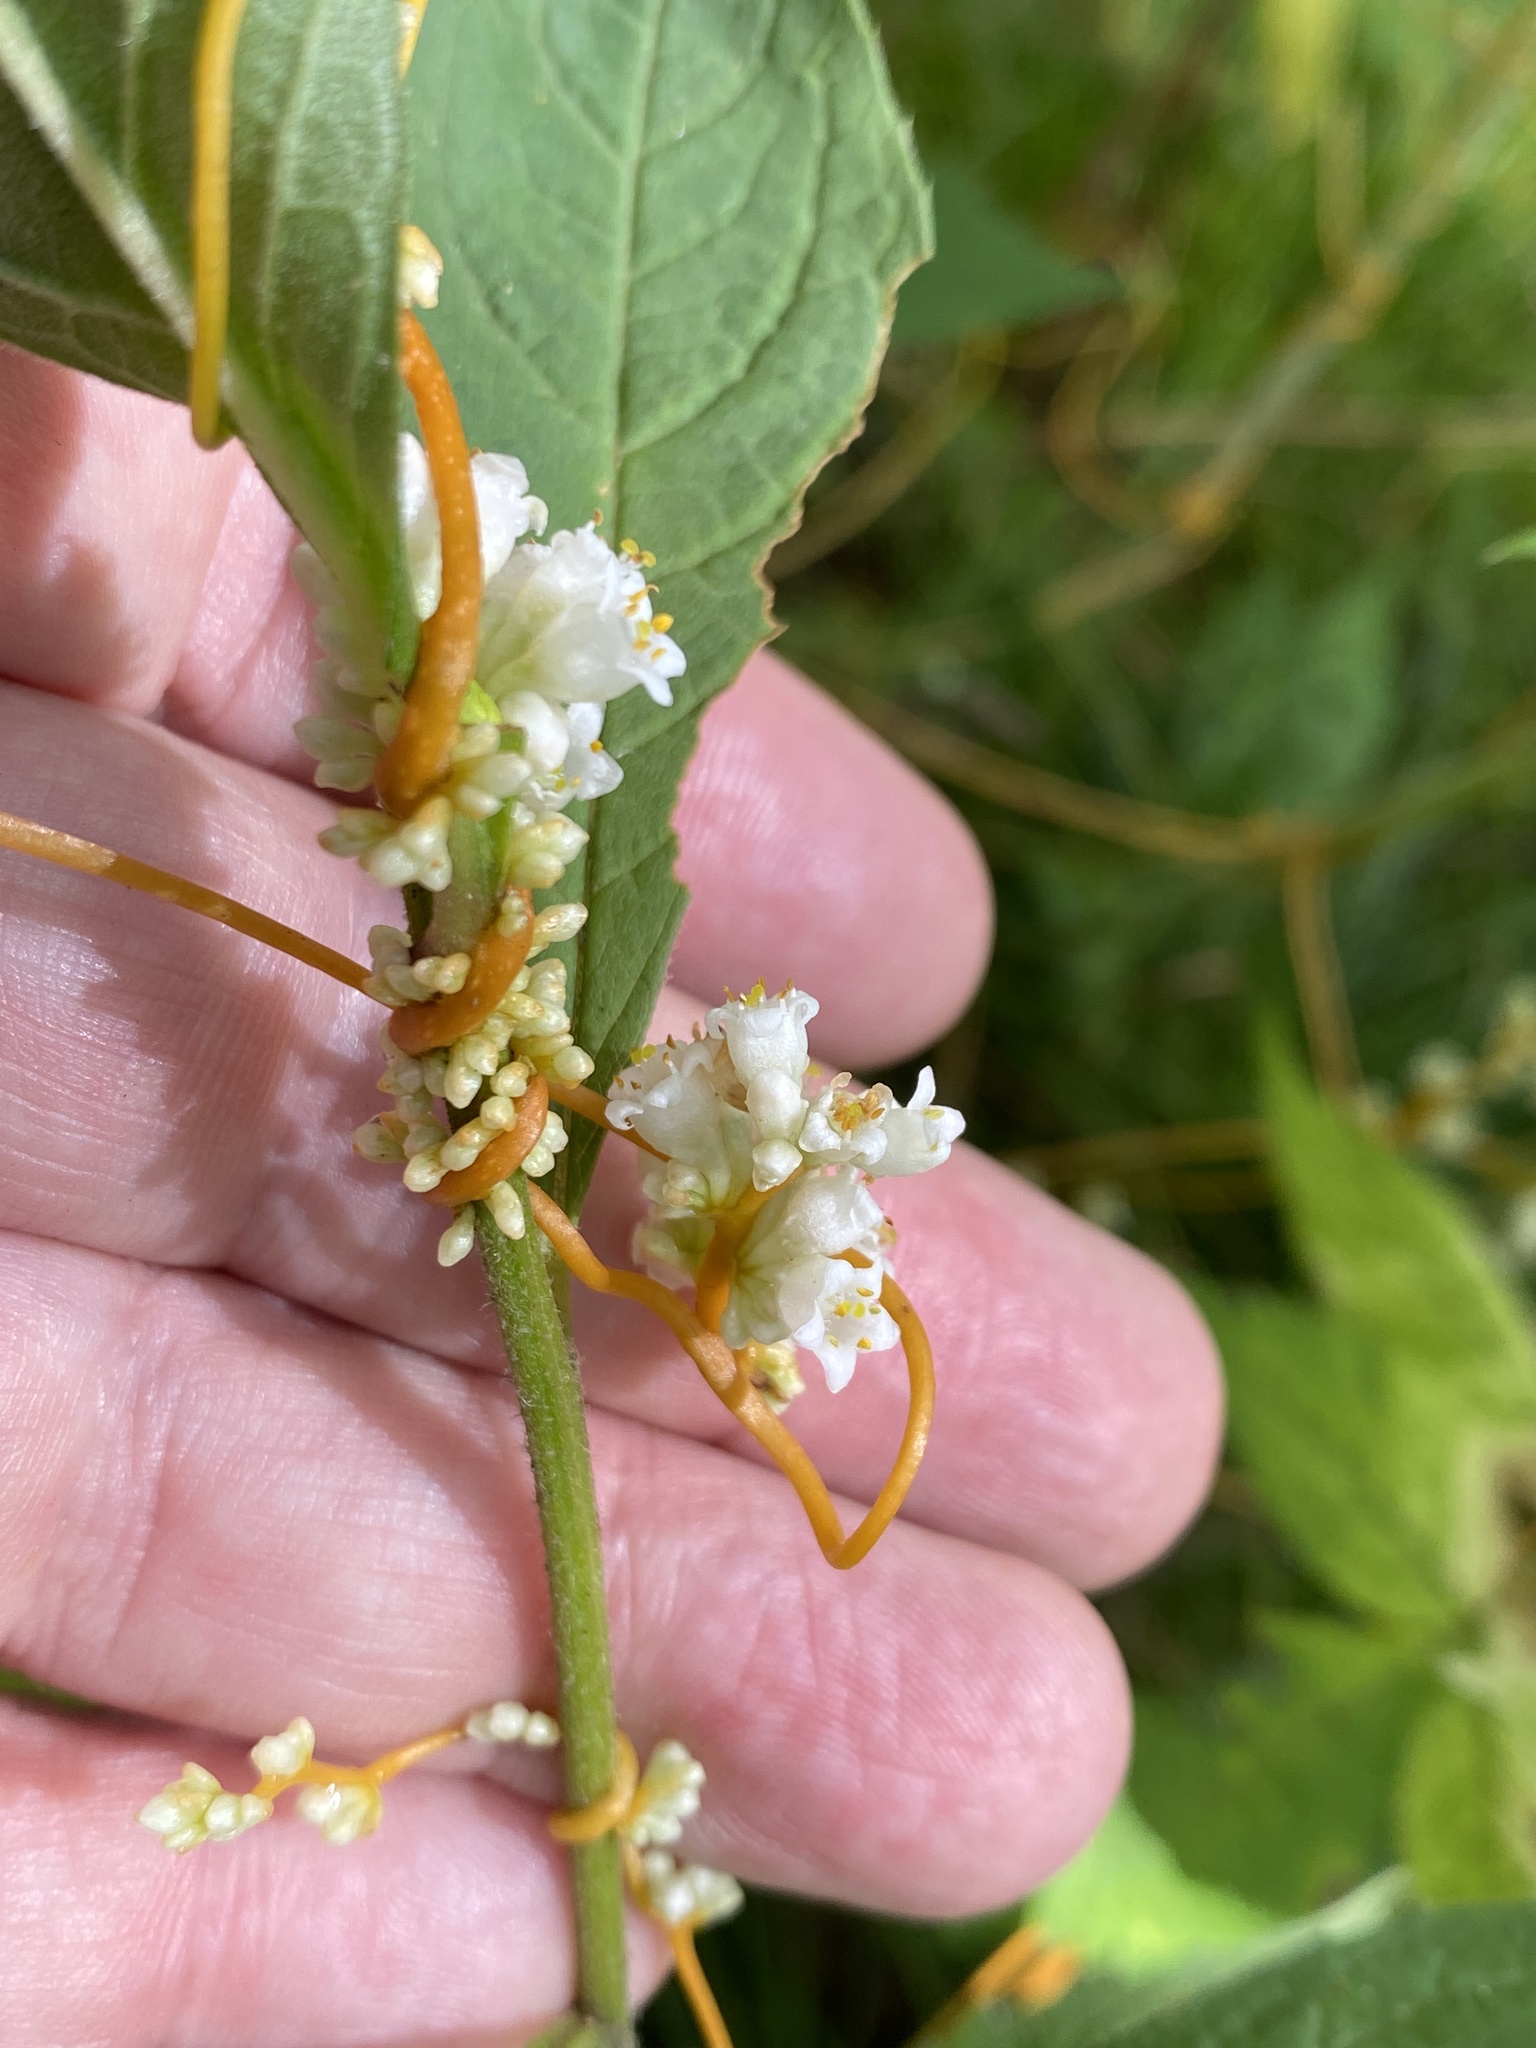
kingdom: Plantae
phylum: Tracheophyta
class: Magnoliopsida
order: Solanales
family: Convolvulaceae
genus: Cuscuta
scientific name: Cuscuta rostrata
